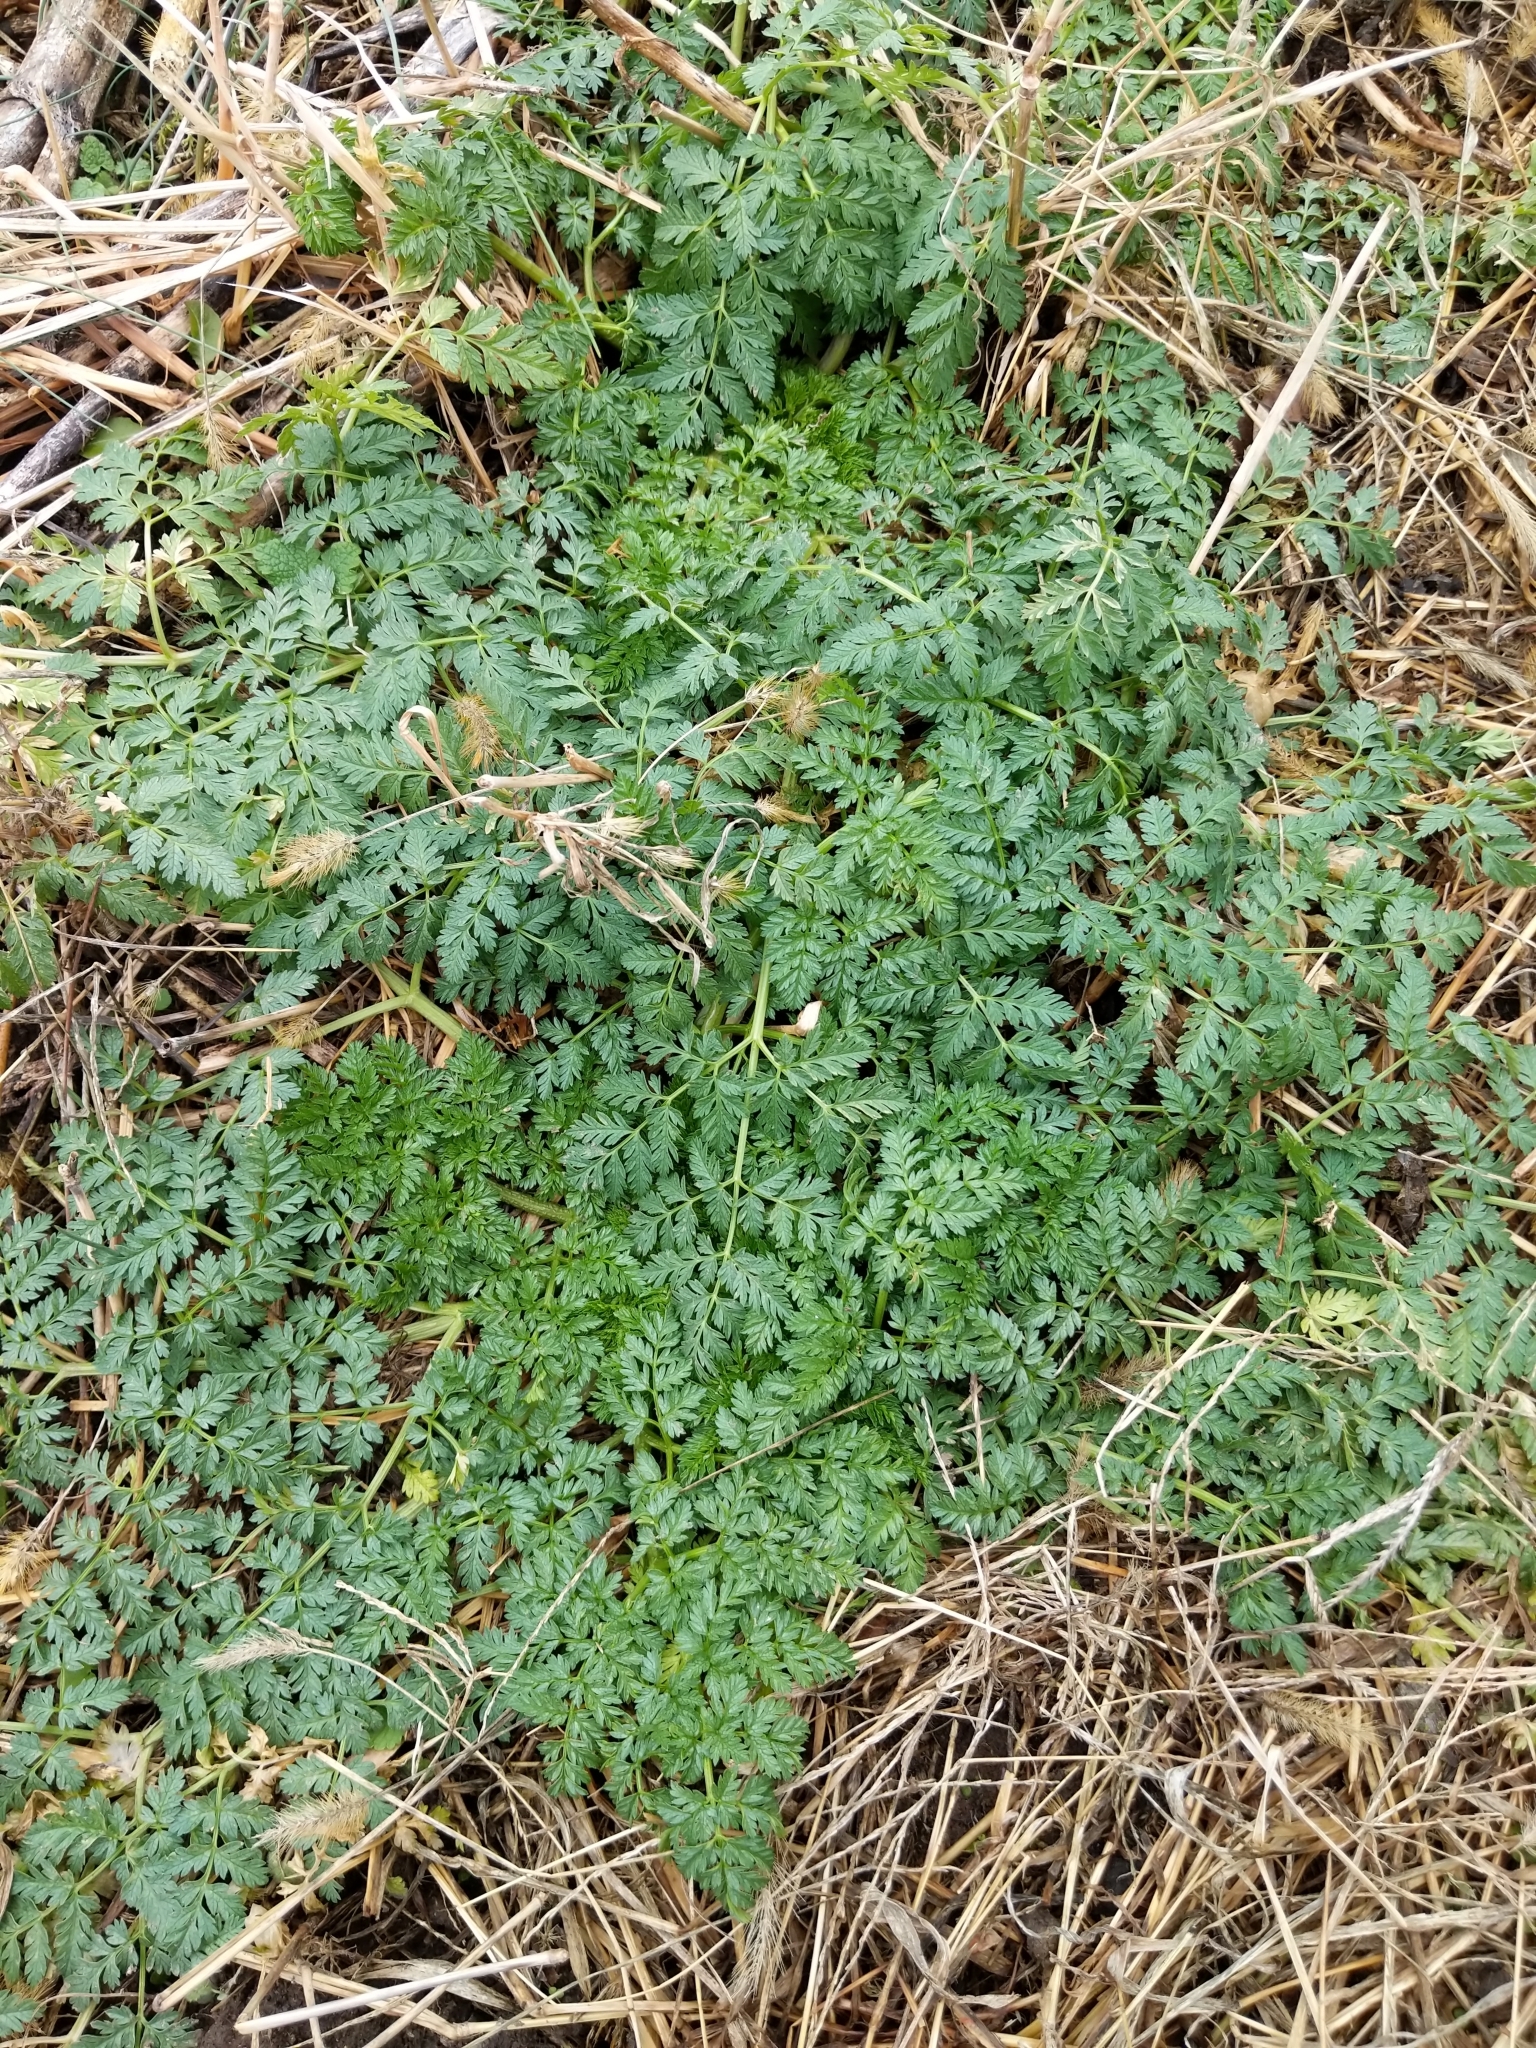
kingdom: Plantae
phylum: Tracheophyta
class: Magnoliopsida
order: Apiales
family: Apiaceae
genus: Conium
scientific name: Conium maculatum
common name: Hemlock
